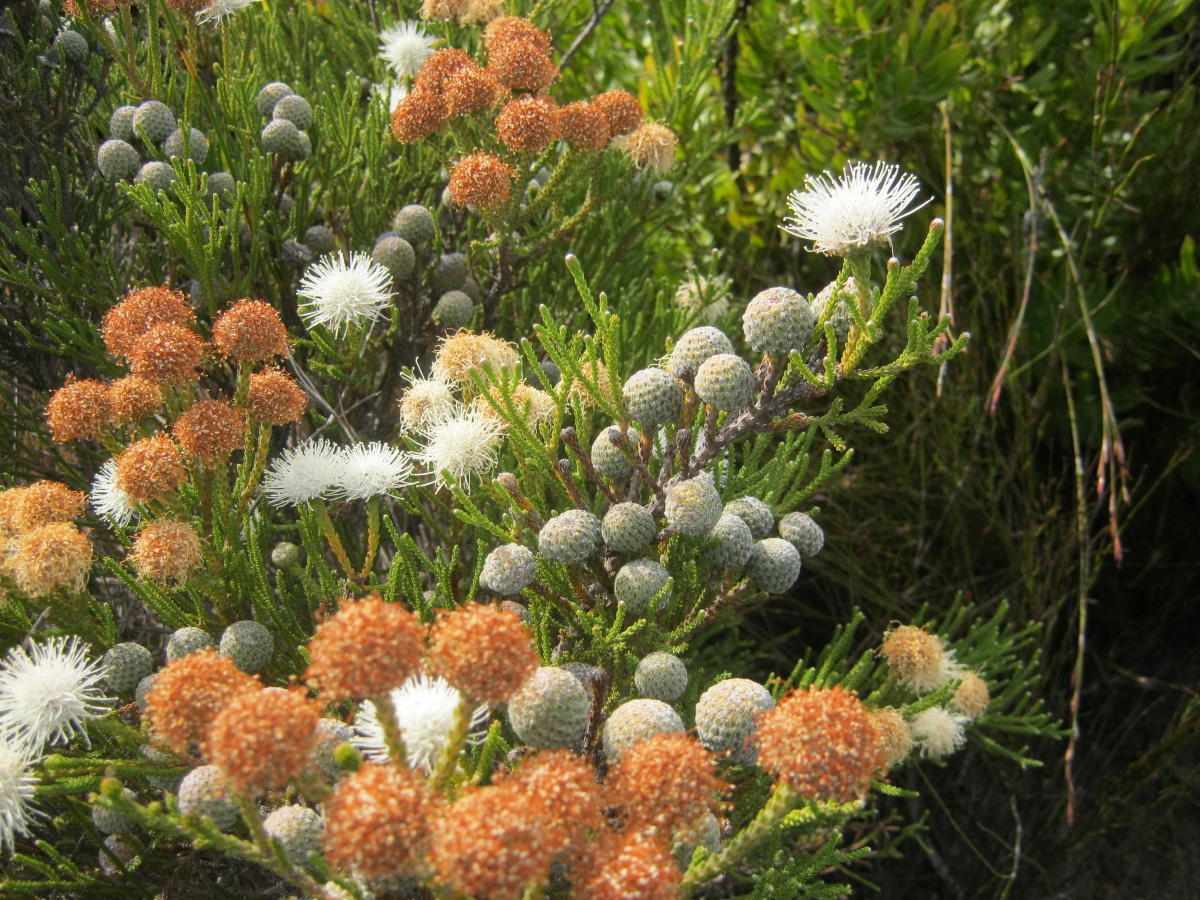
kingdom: Plantae
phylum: Tracheophyta
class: Magnoliopsida
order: Bruniales
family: Bruniaceae
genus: Brunia
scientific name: Brunia noduliflora
